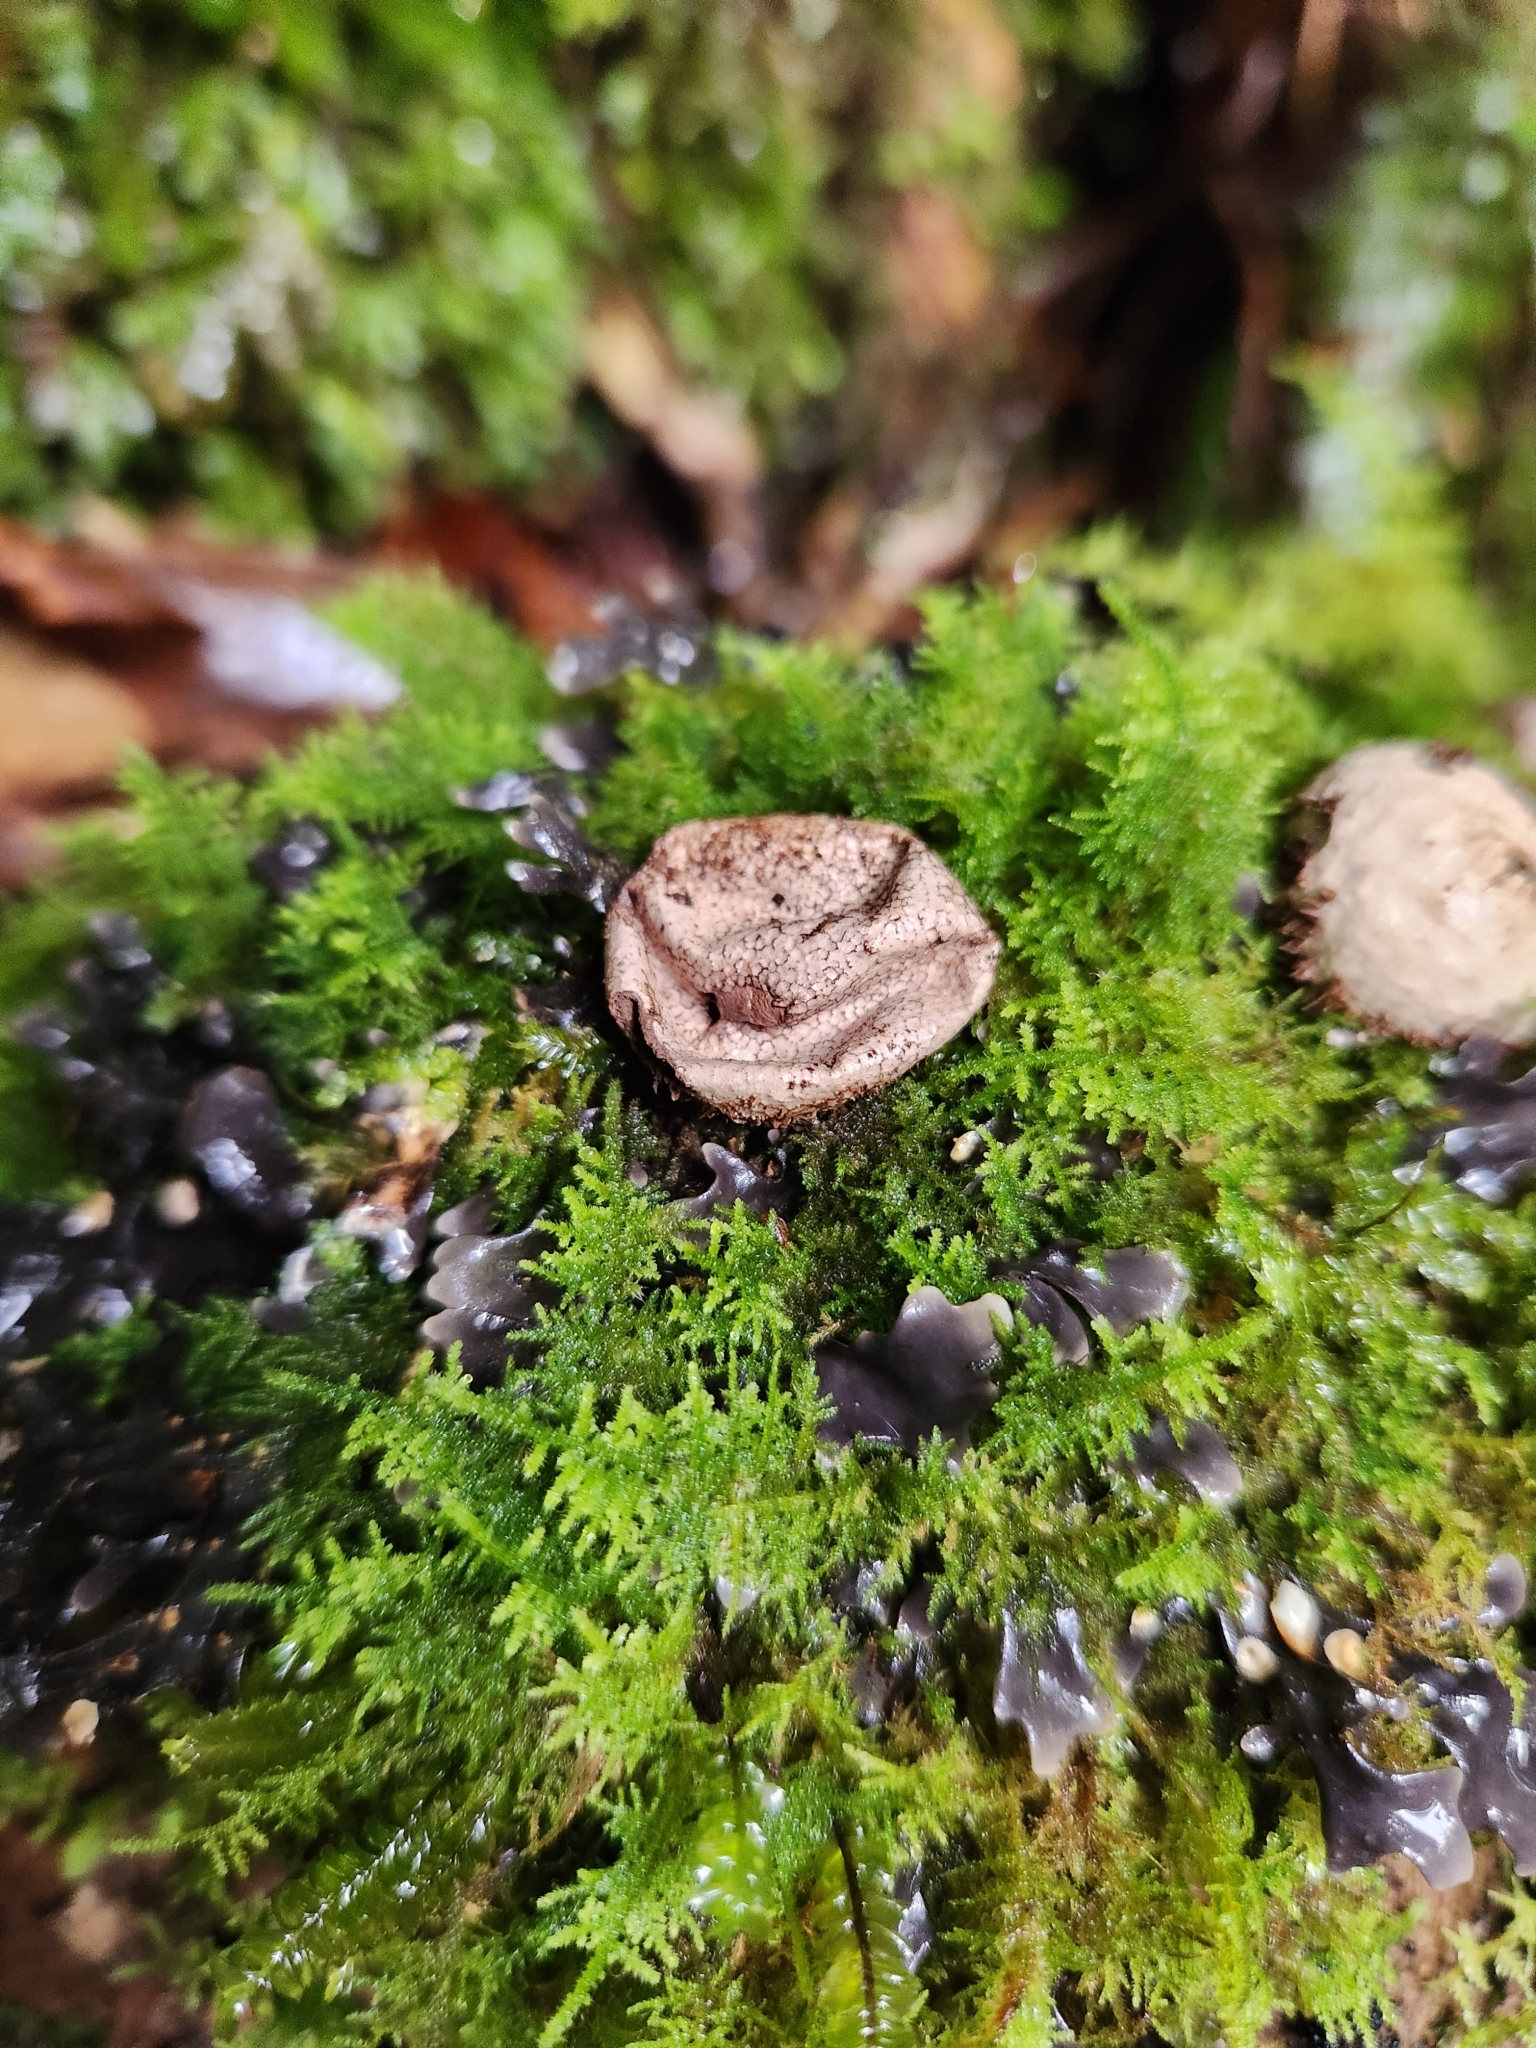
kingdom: Fungi
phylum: Basidiomycota
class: Agaricomycetes
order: Agaricales
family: Lycoperdaceae
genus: Lycoperdon
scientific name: Lycoperdon compactum
